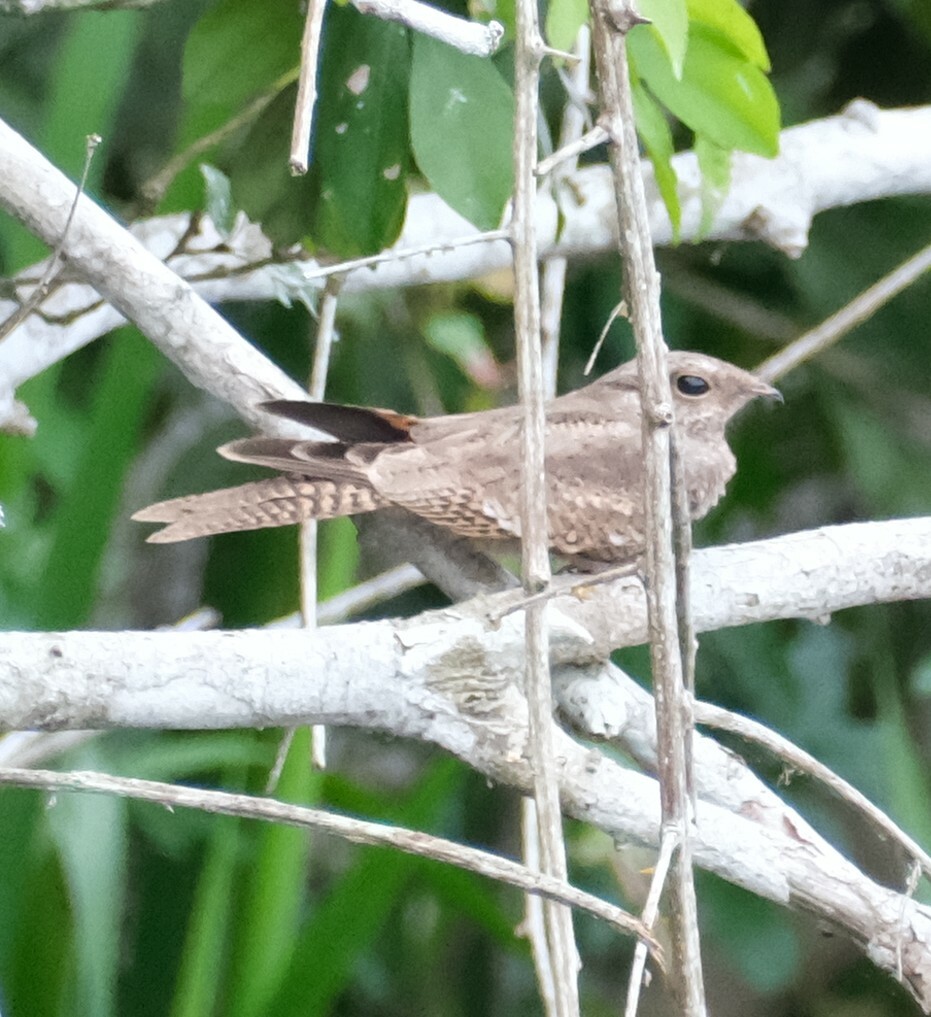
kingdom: Animalia
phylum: Chordata
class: Aves
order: Caprimulgiformes
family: Caprimulgidae
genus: Hydropsalis
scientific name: Hydropsalis climacocerca
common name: Ladder-tailed nightjar
